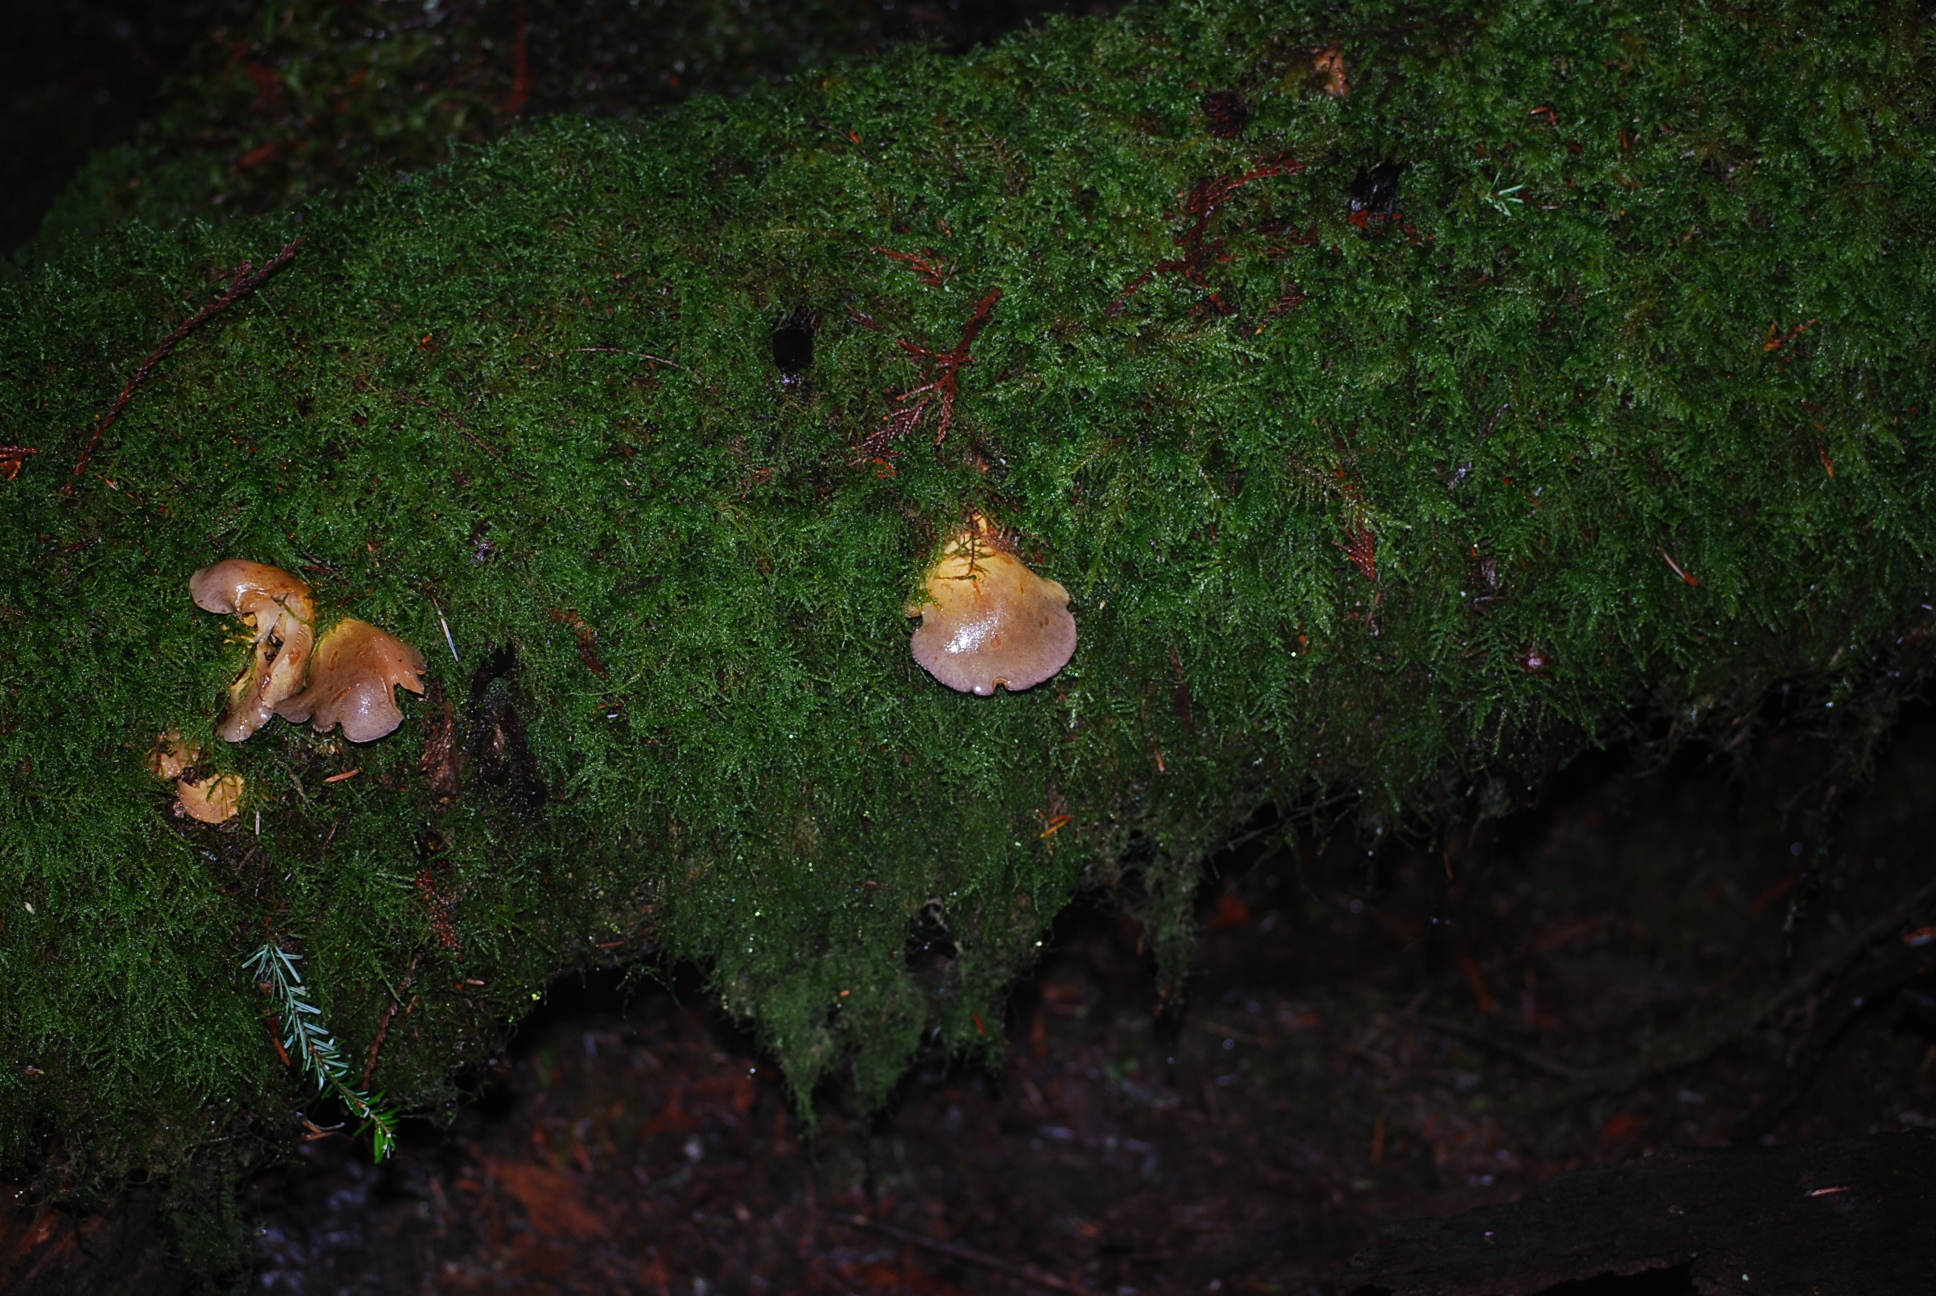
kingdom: Fungi
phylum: Basidiomycota
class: Agaricomycetes
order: Agaricales
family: Sarcomyxaceae
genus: Sarcomyxa
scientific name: Sarcomyxa serotina
